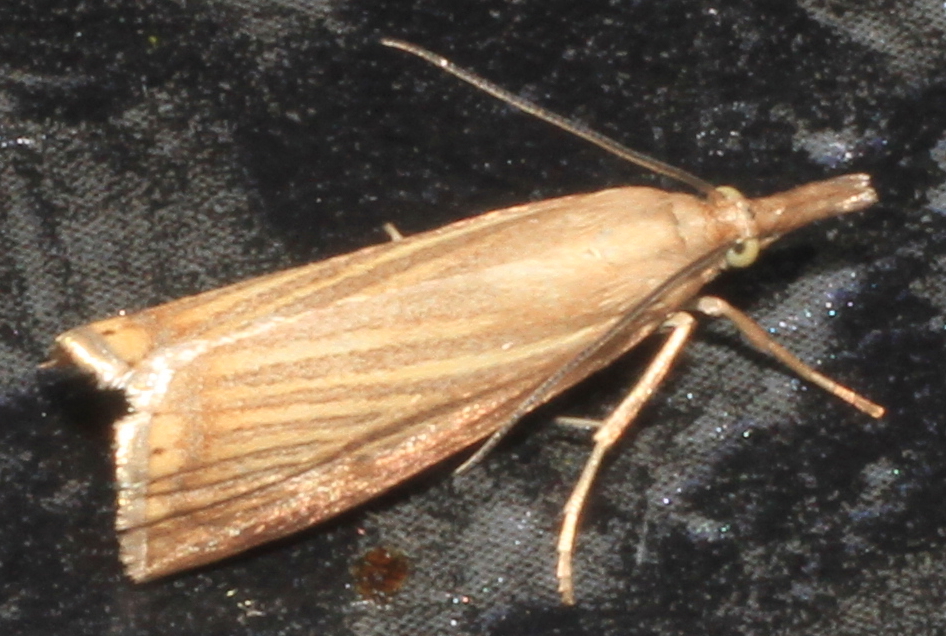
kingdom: Animalia
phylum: Arthropoda
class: Insecta
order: Lepidoptera
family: Crambidae
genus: Chrysoteuchia
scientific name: Chrysoteuchia culmella
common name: Garden grass-veneer
